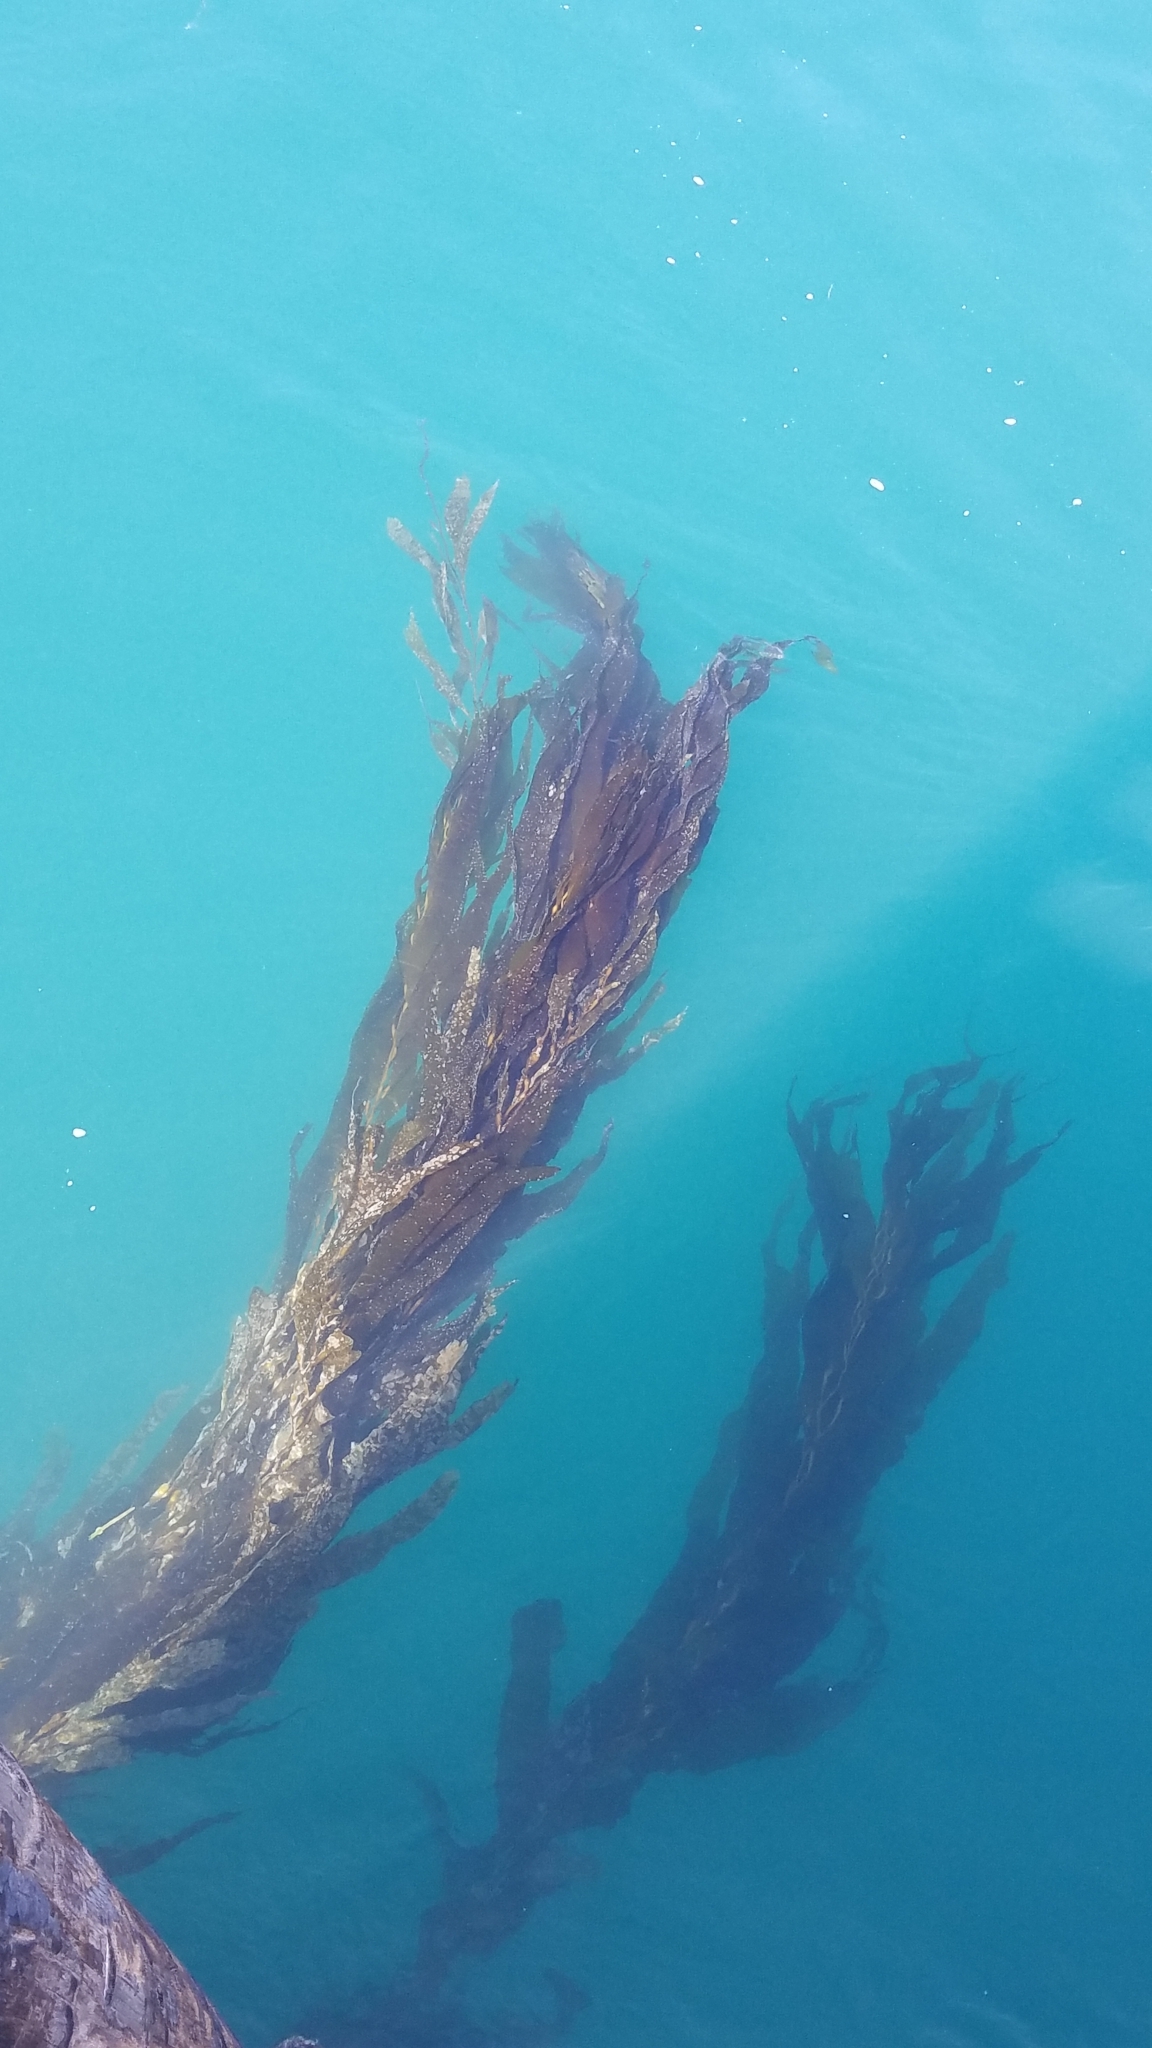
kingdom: Chromista
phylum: Ochrophyta
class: Phaeophyceae
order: Laminariales
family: Laminariaceae
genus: Macrocystis
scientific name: Macrocystis pyrifera
